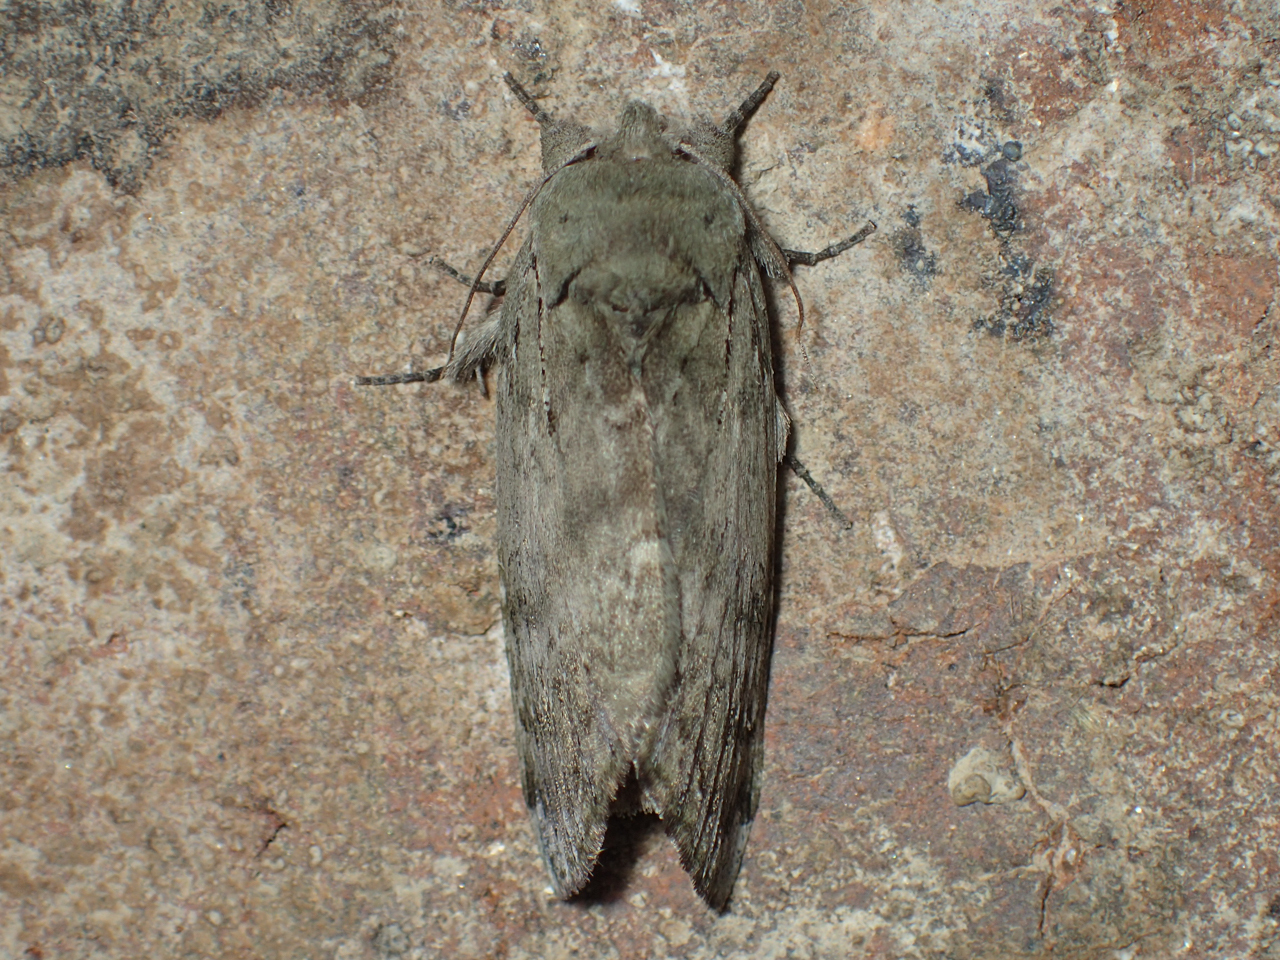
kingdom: Animalia
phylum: Arthropoda
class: Insecta
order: Lepidoptera
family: Notodontidae
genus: Schizura
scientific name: Schizura
